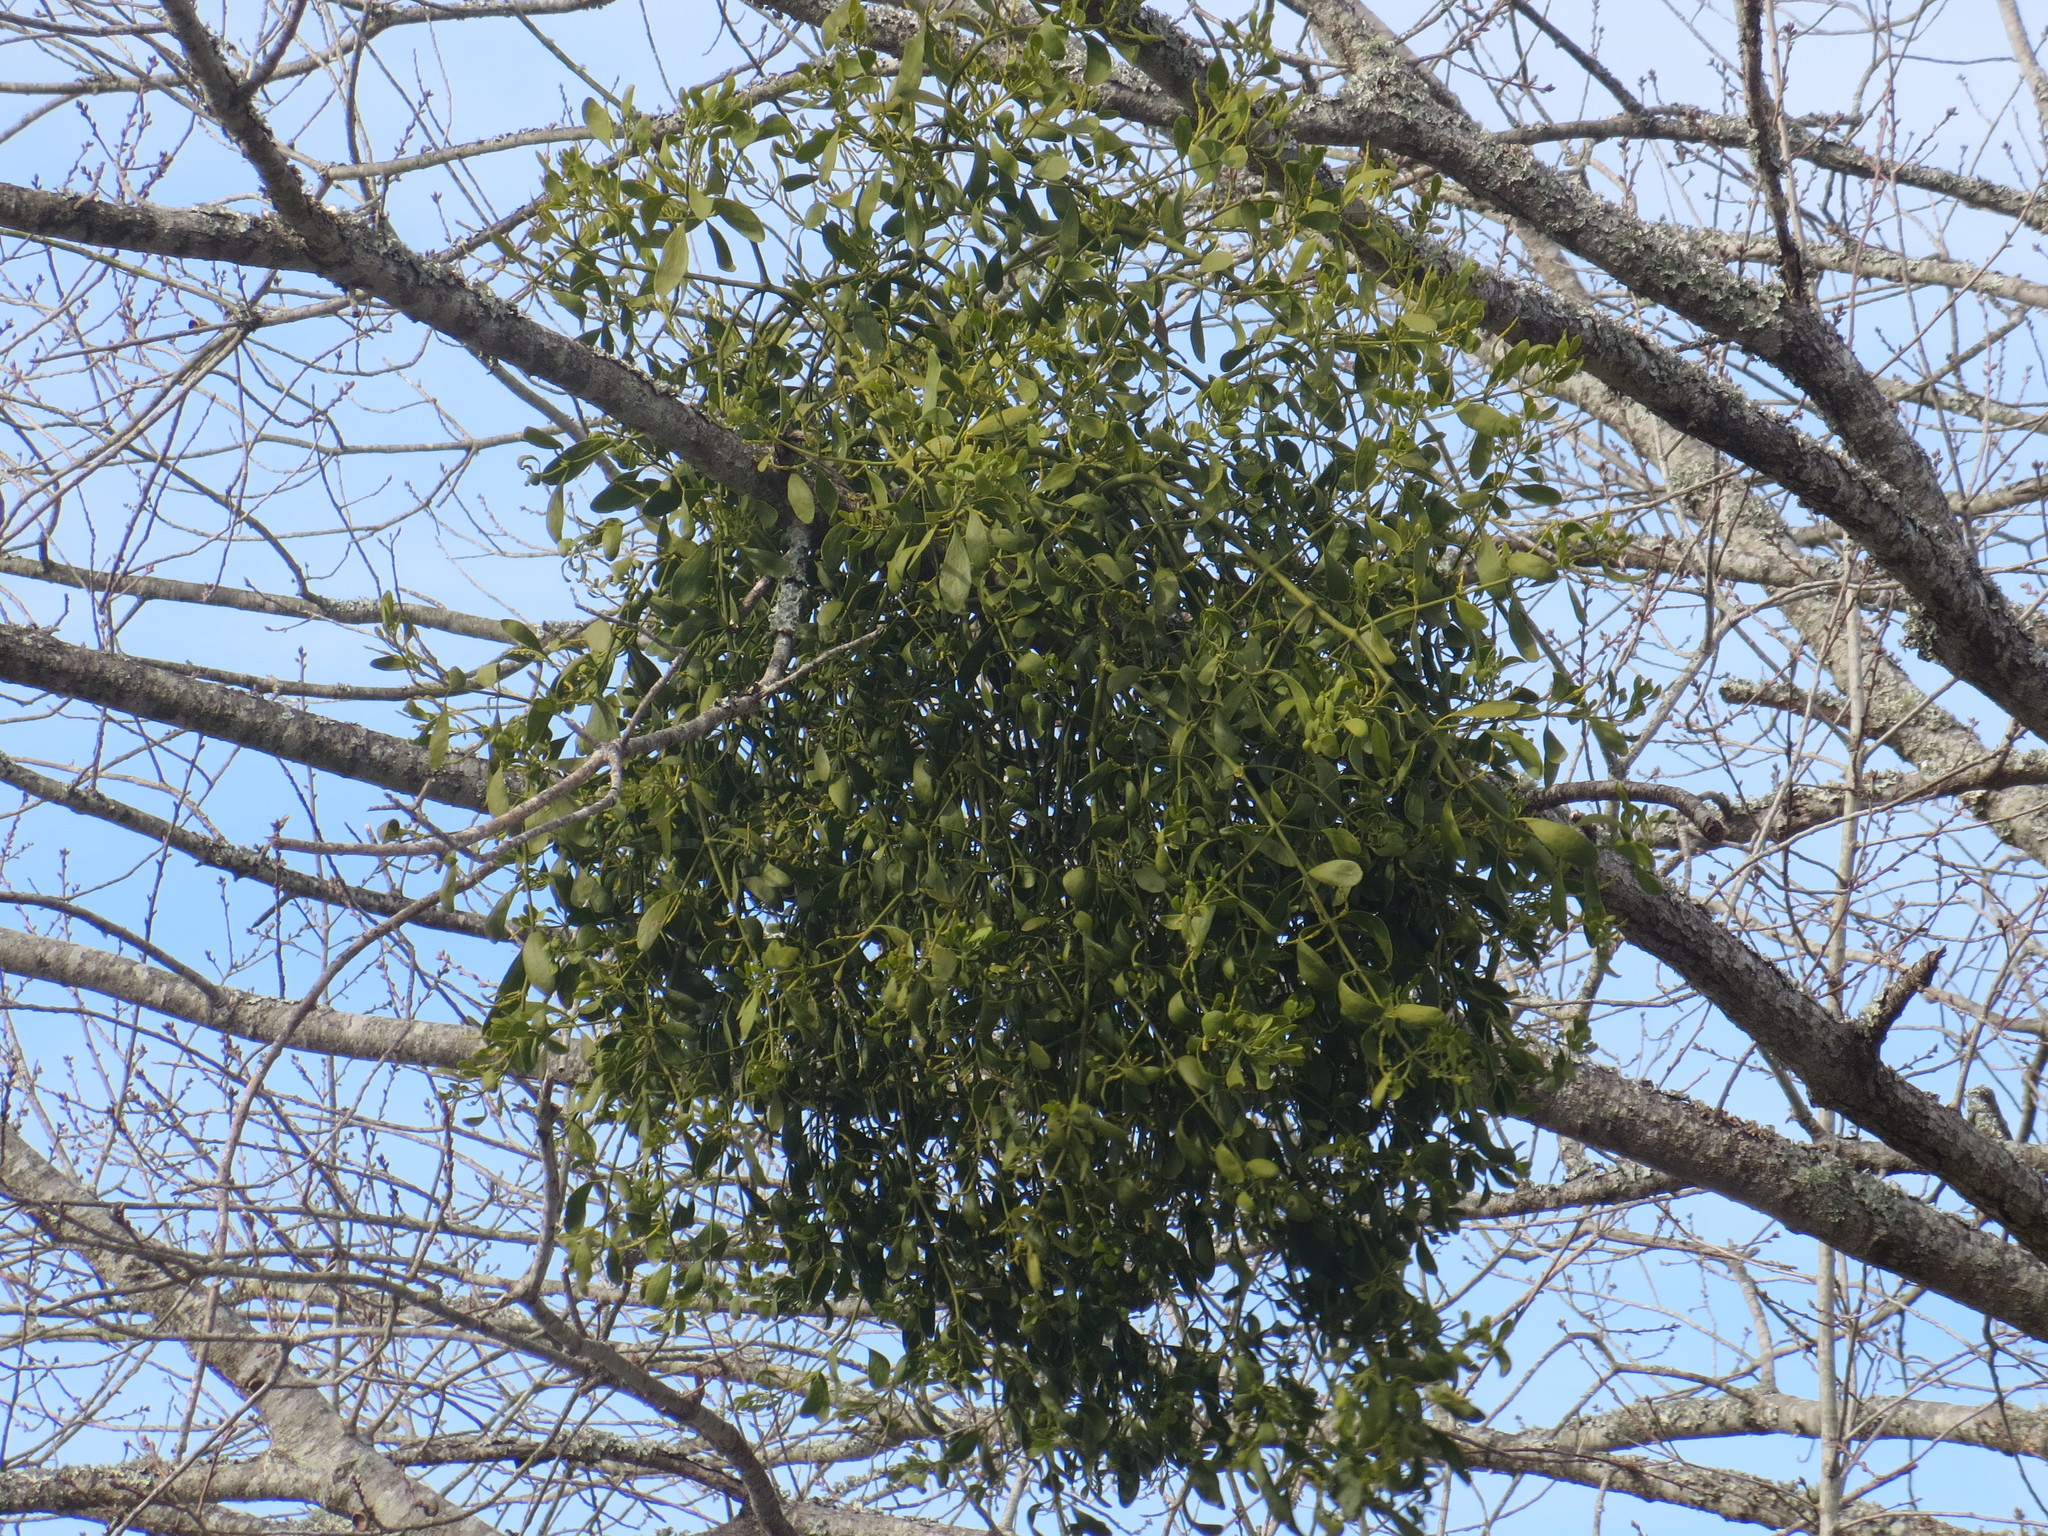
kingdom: Plantae
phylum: Tracheophyta
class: Magnoliopsida
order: Santalales
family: Viscaceae
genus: Phoradendron
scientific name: Phoradendron leucarpum
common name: Pacific mistletoe
